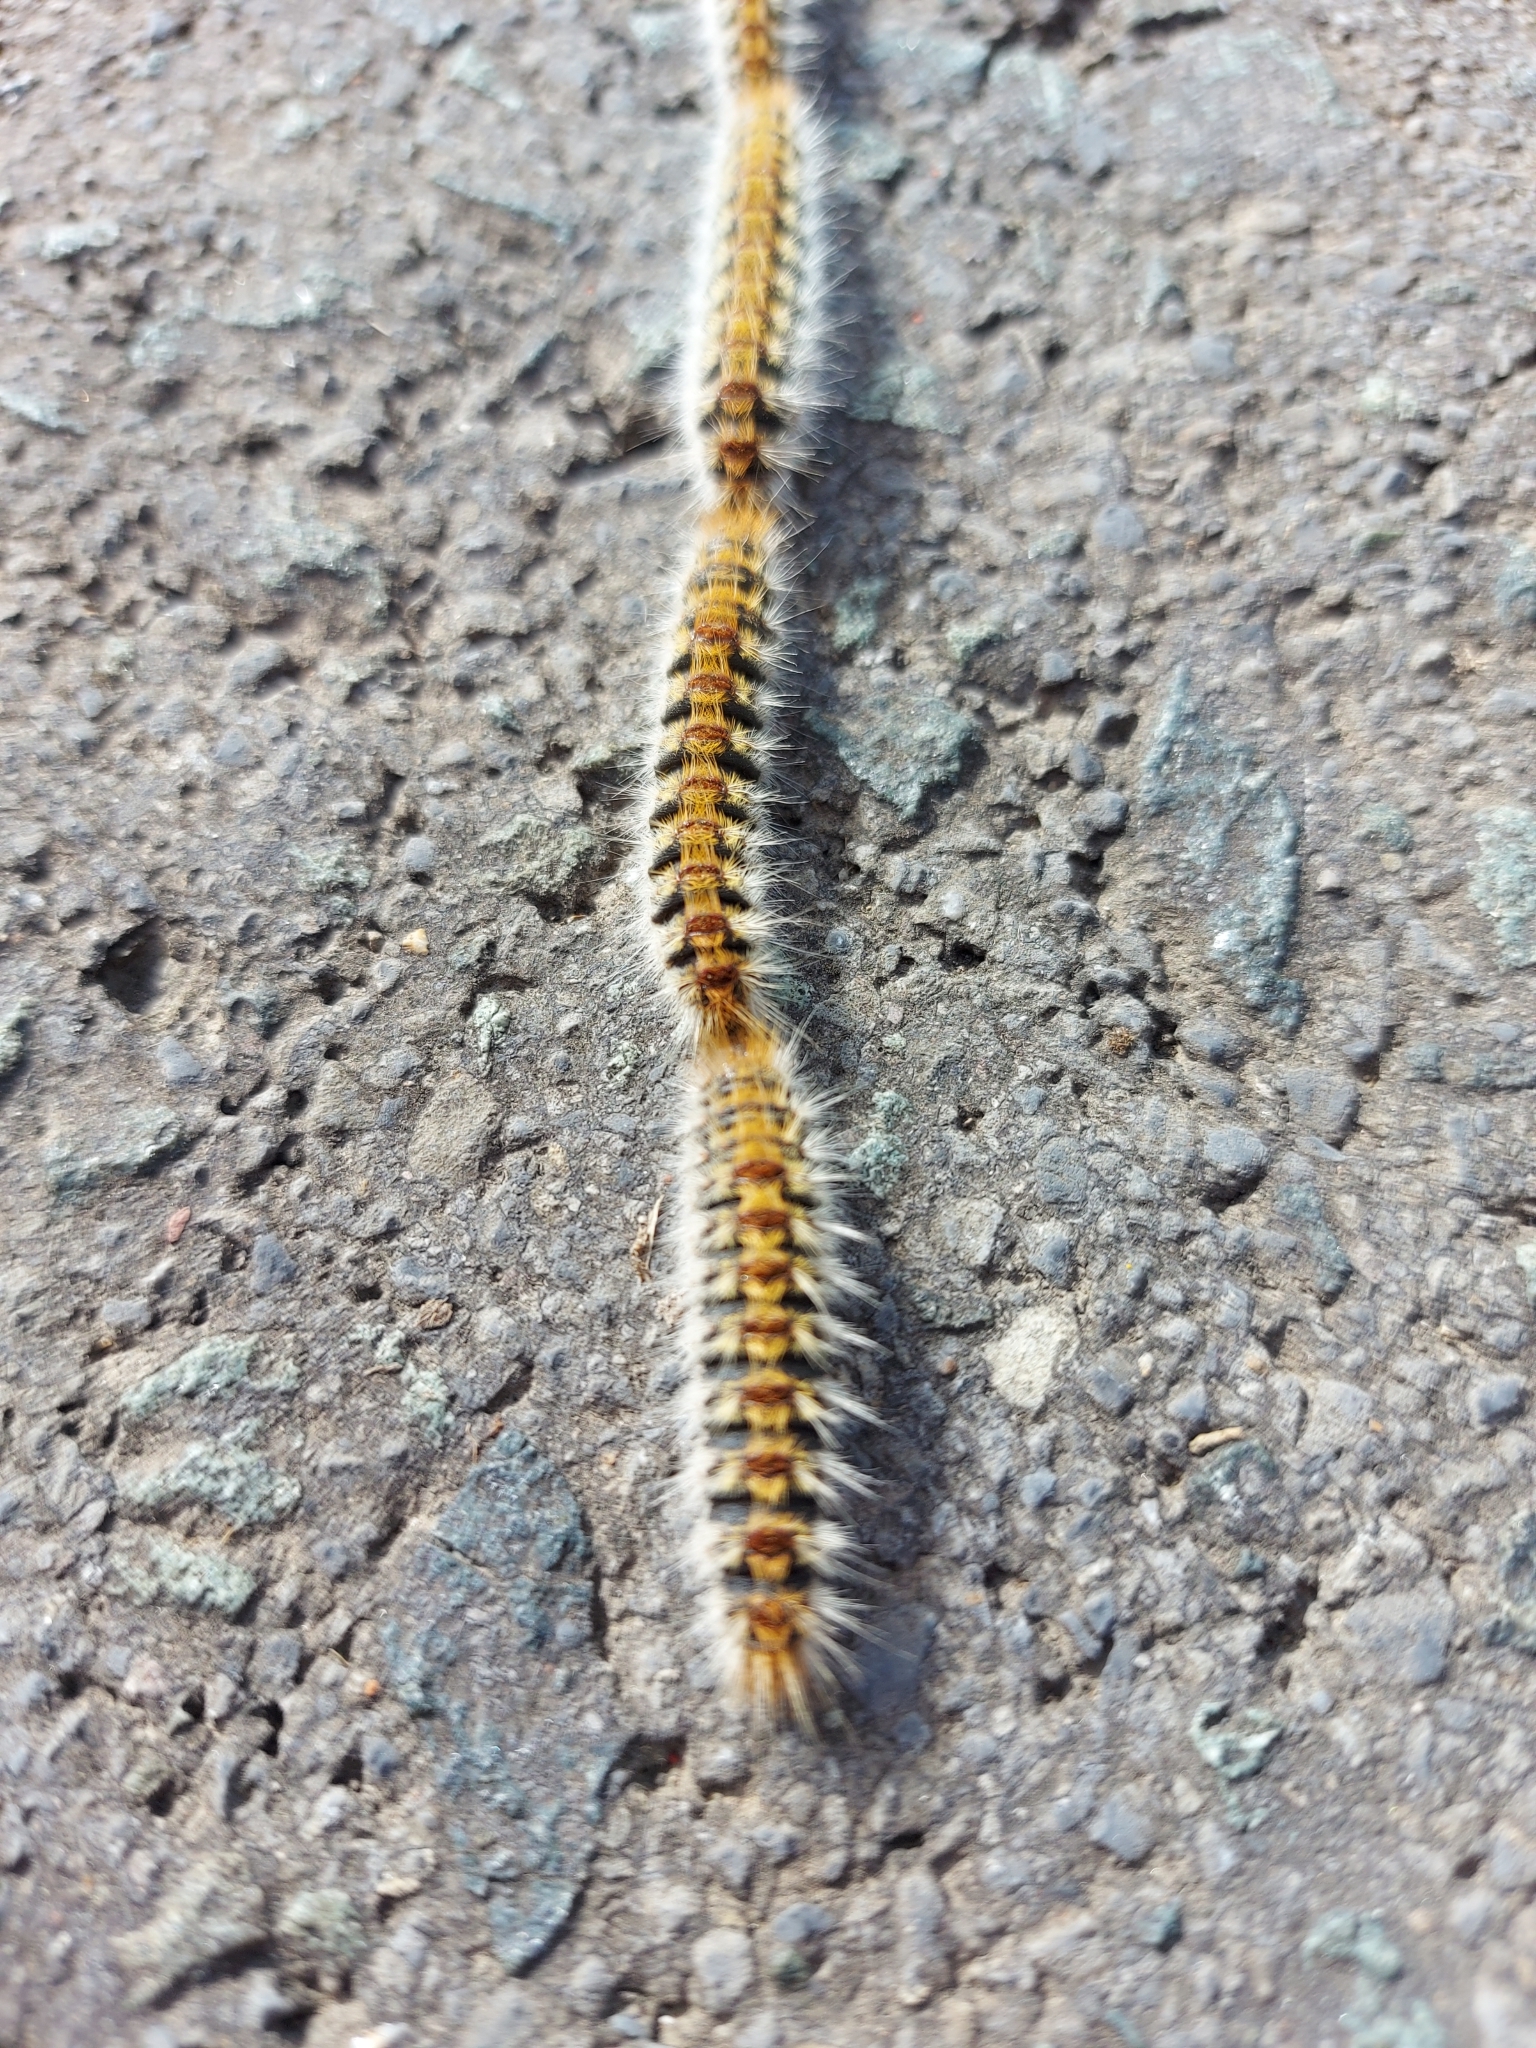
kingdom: Animalia
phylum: Arthropoda
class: Insecta
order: Lepidoptera
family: Notodontidae
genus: Thaumetopoea
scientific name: Thaumetopoea pityocampa
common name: Pine processionary
